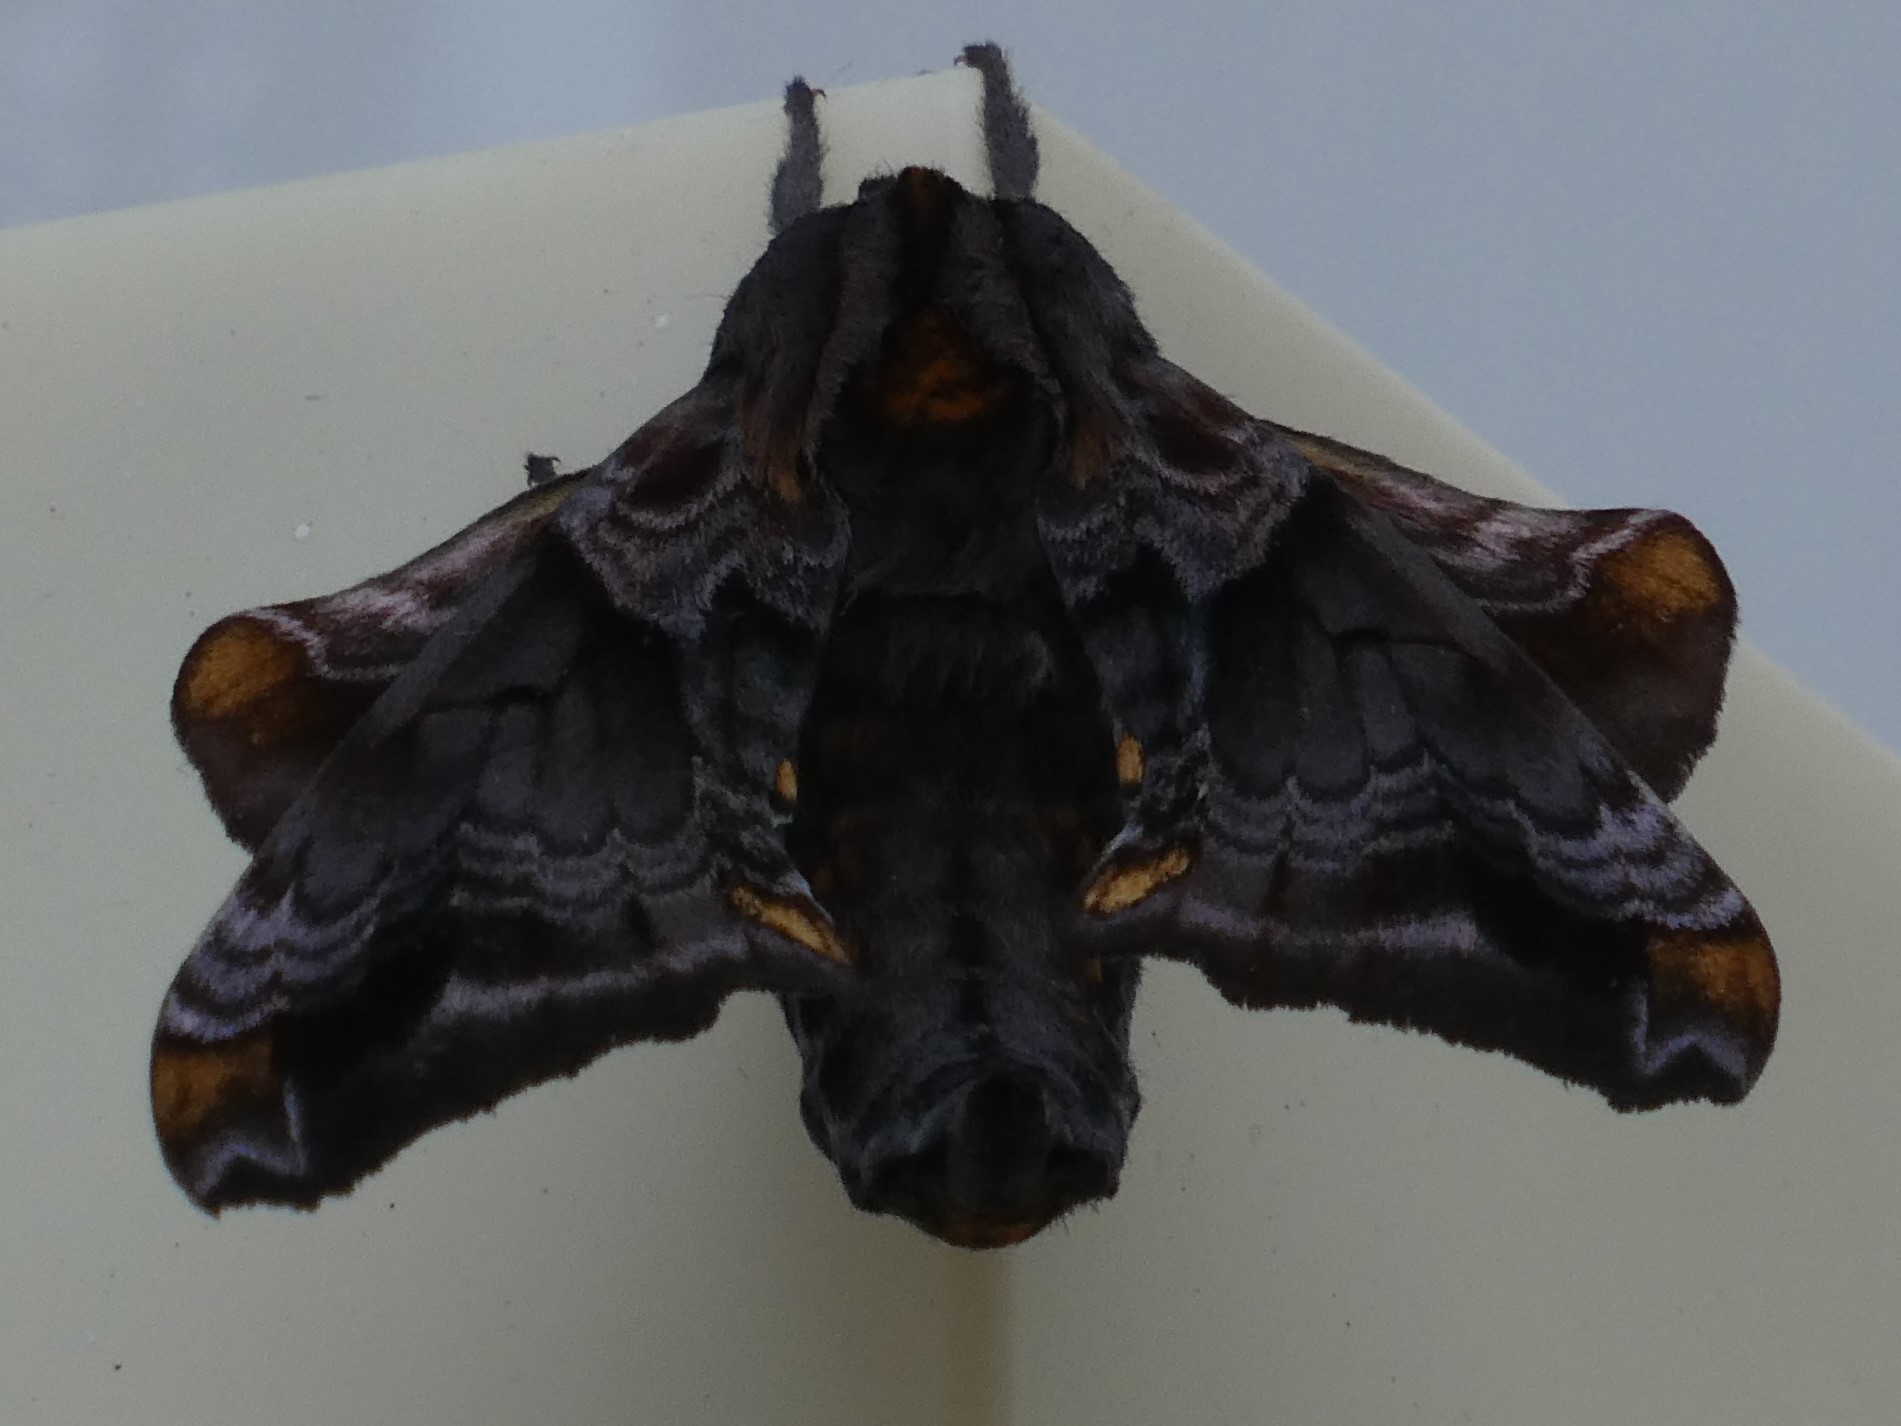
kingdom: Animalia
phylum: Arthropoda
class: Insecta
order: Lepidoptera
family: Sphingidae
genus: Paonias
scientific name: Paonias myops
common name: Small-eyed sphinx
